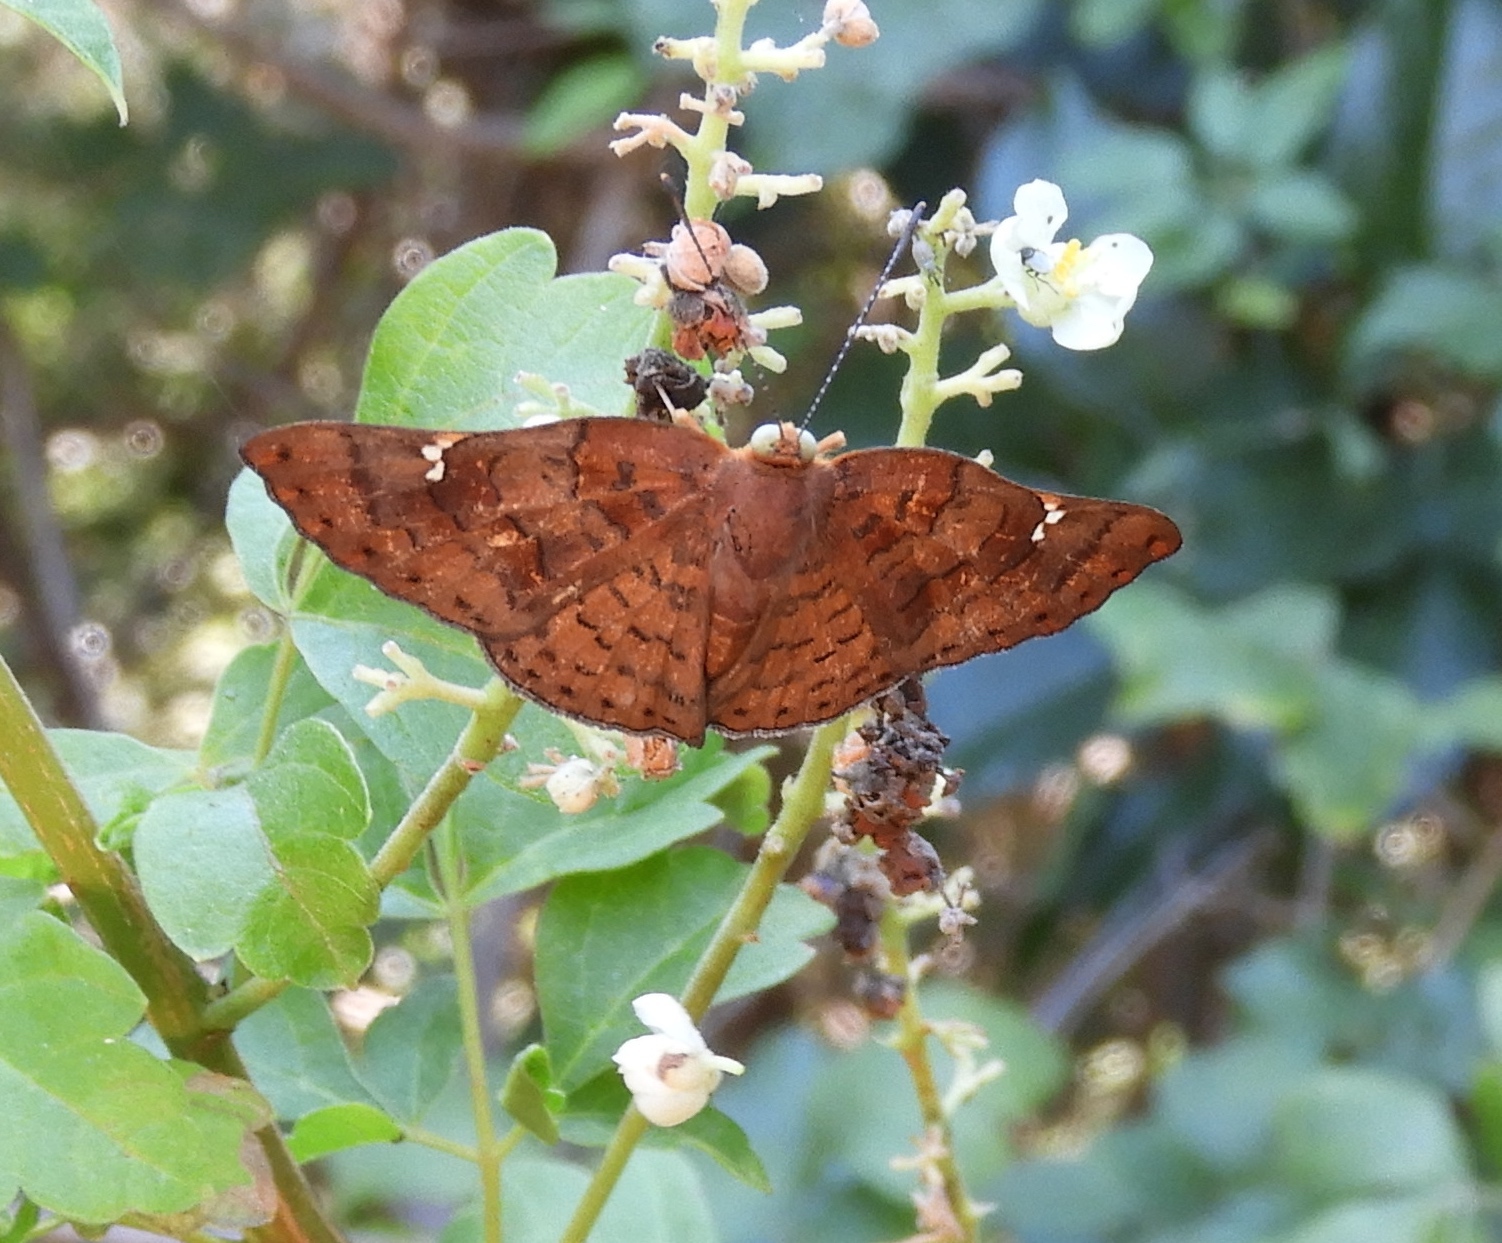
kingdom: Animalia
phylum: Arthropoda
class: Insecta
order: Lepidoptera
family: Riodinidae
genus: Curvie
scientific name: Curvie emesia
